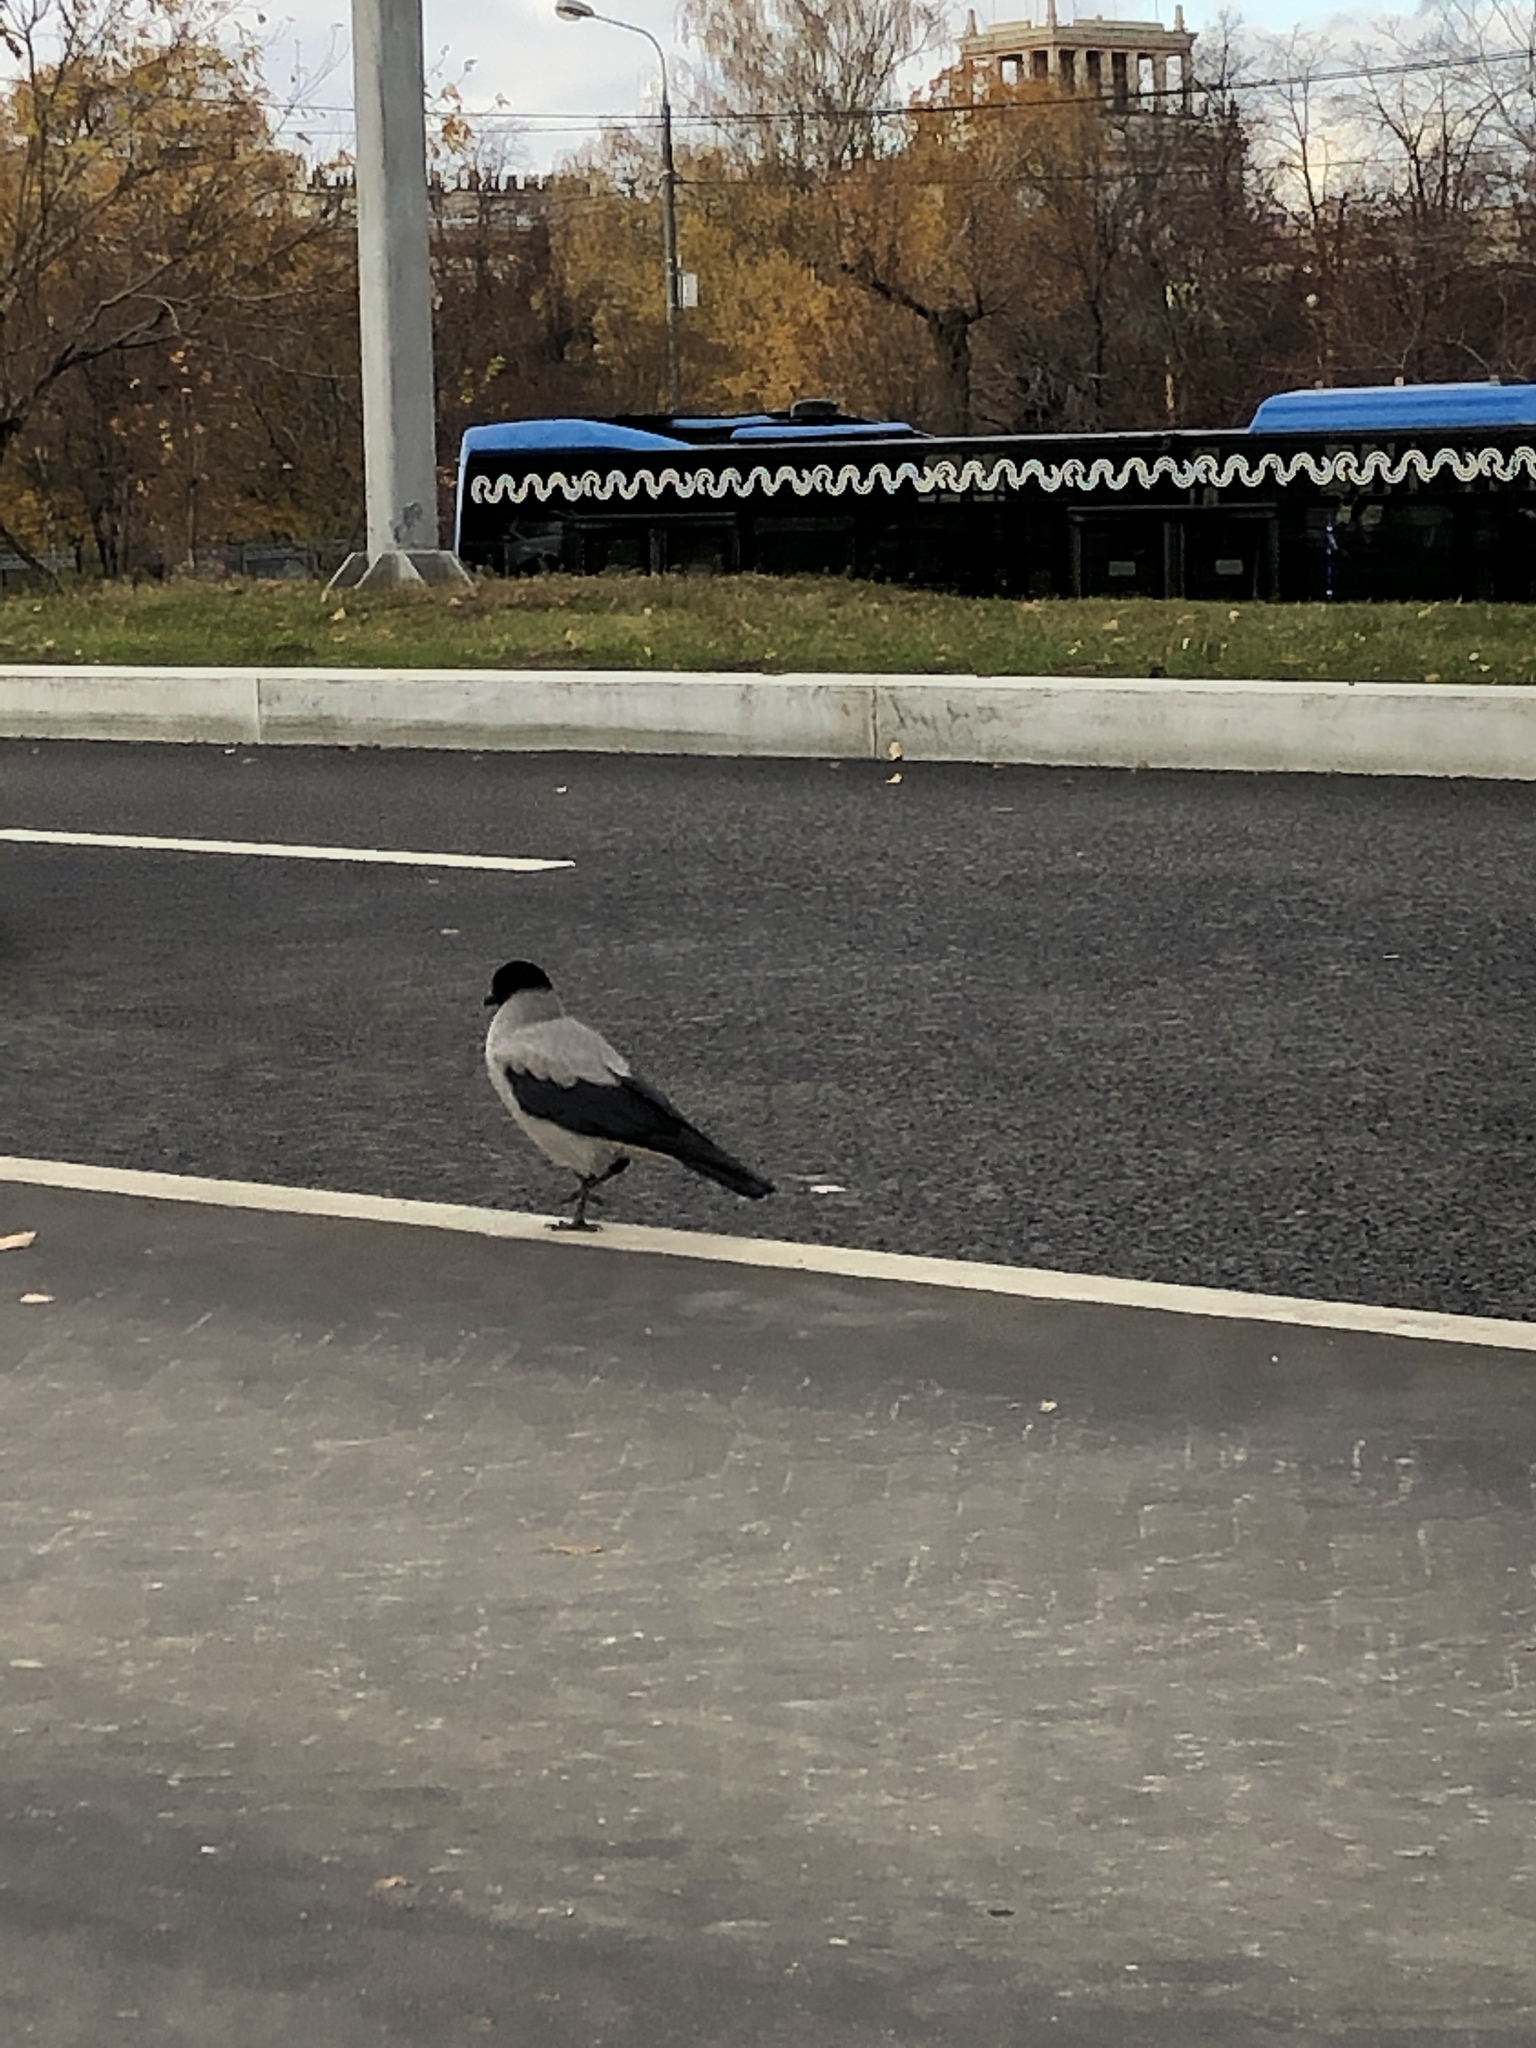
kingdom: Animalia
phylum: Chordata
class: Aves
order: Passeriformes
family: Corvidae
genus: Corvus
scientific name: Corvus cornix
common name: Hooded crow
